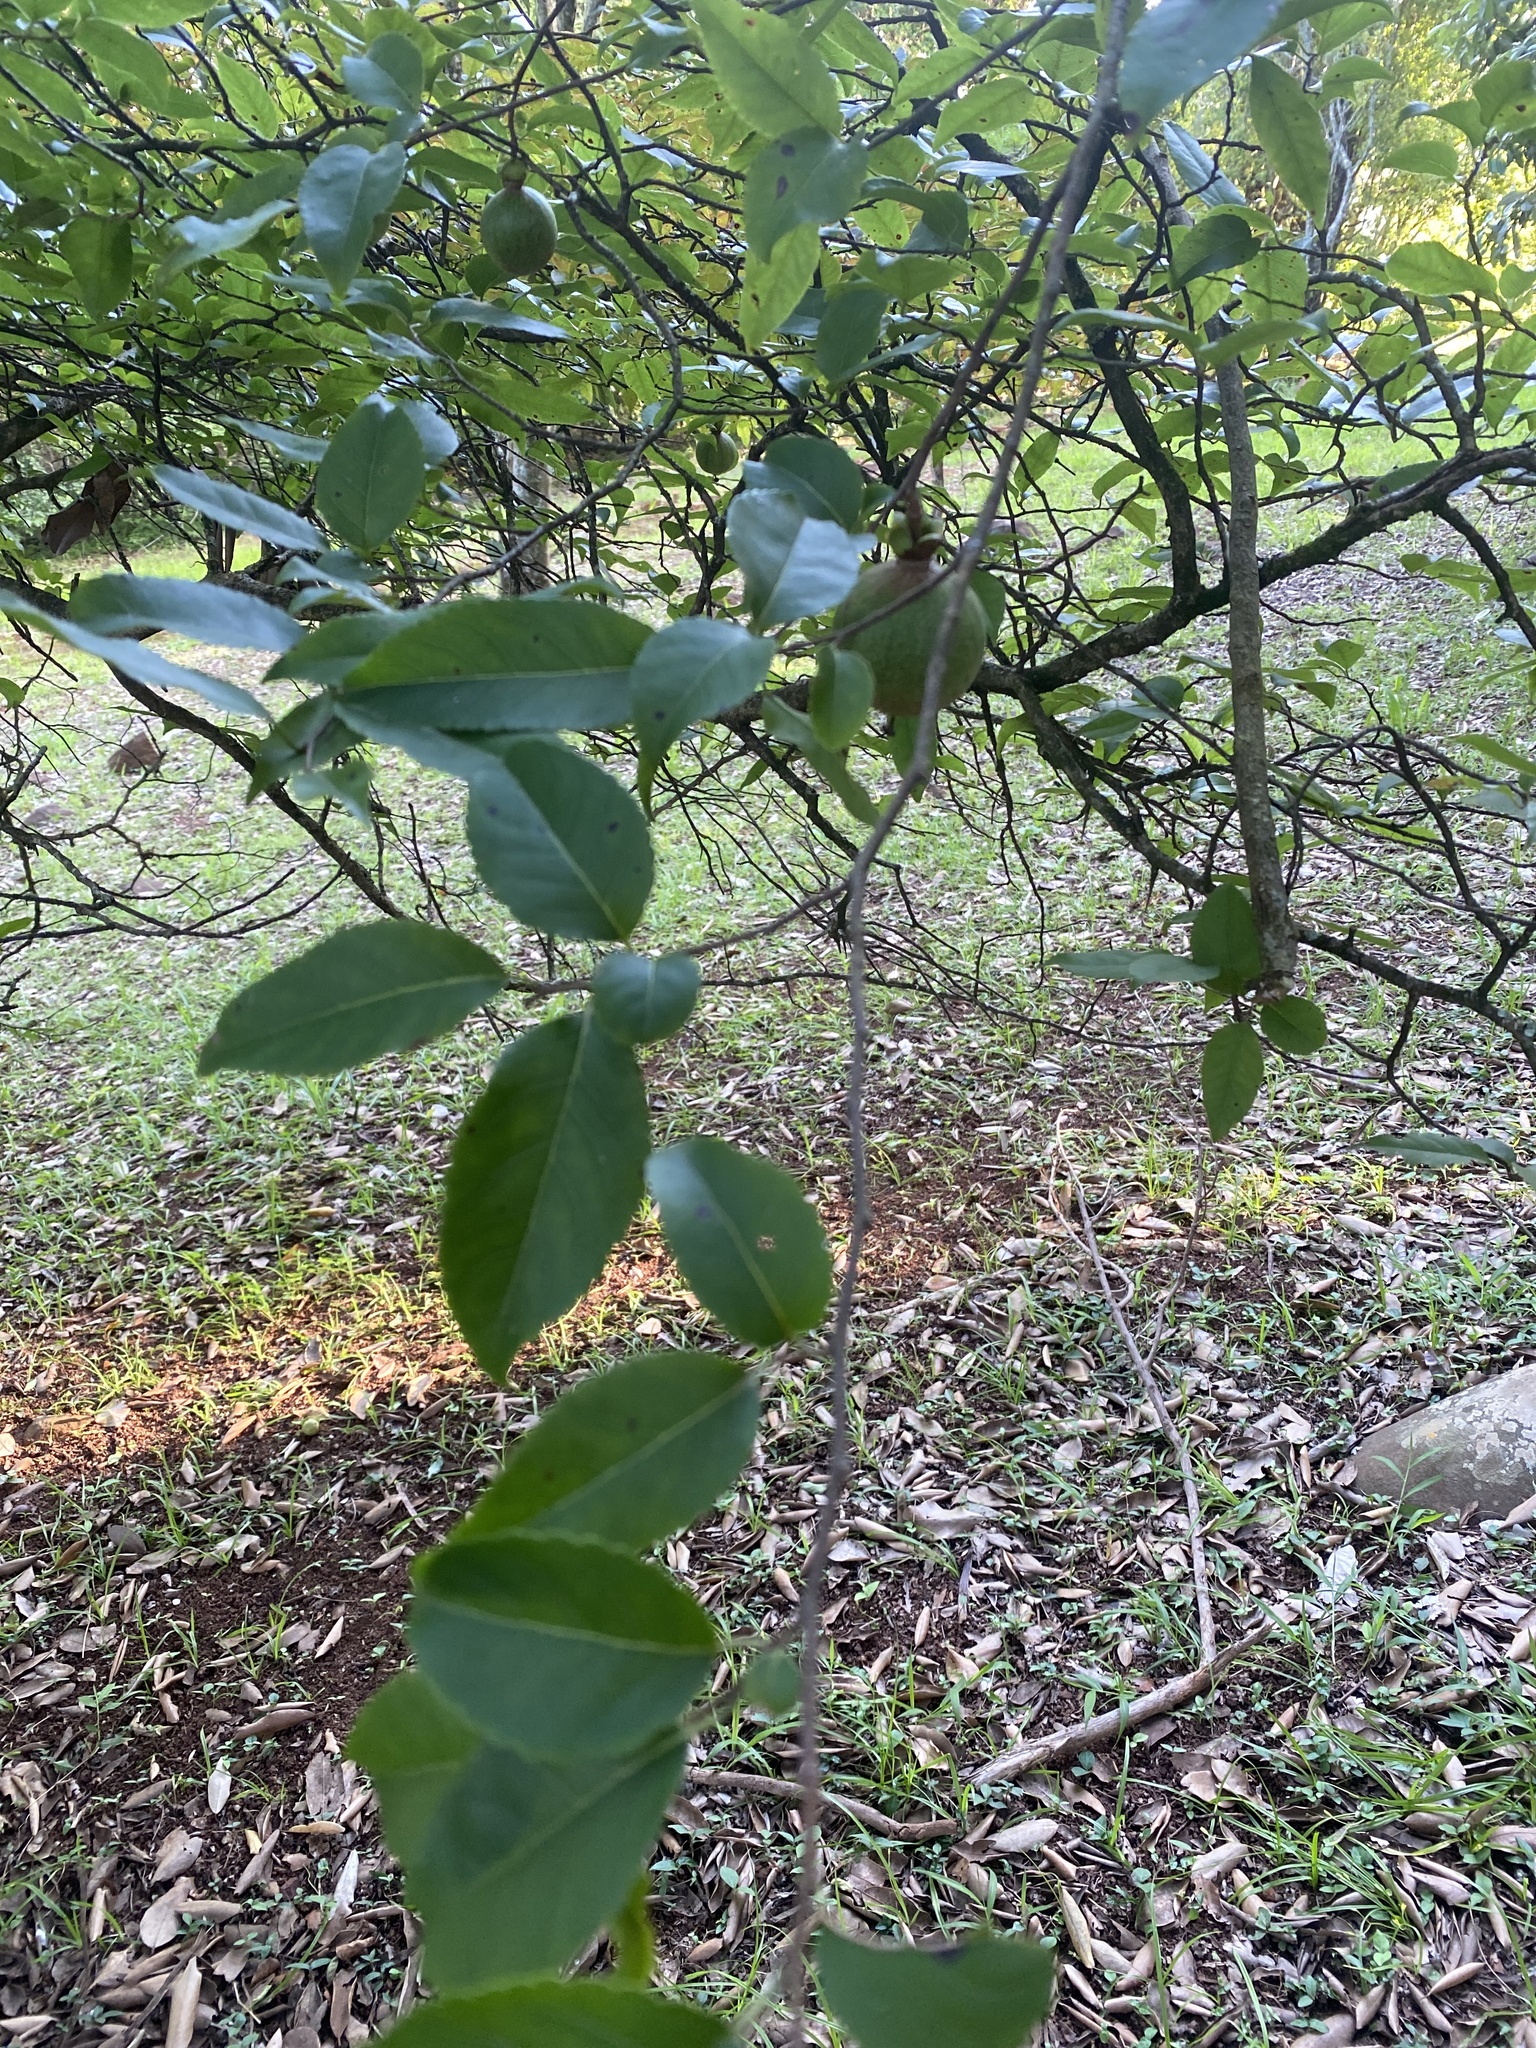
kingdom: Plantae
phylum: Tracheophyta
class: Magnoliopsida
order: Malpighiales
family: Salicaceae
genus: Oncoba
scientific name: Oncoba spinosa
